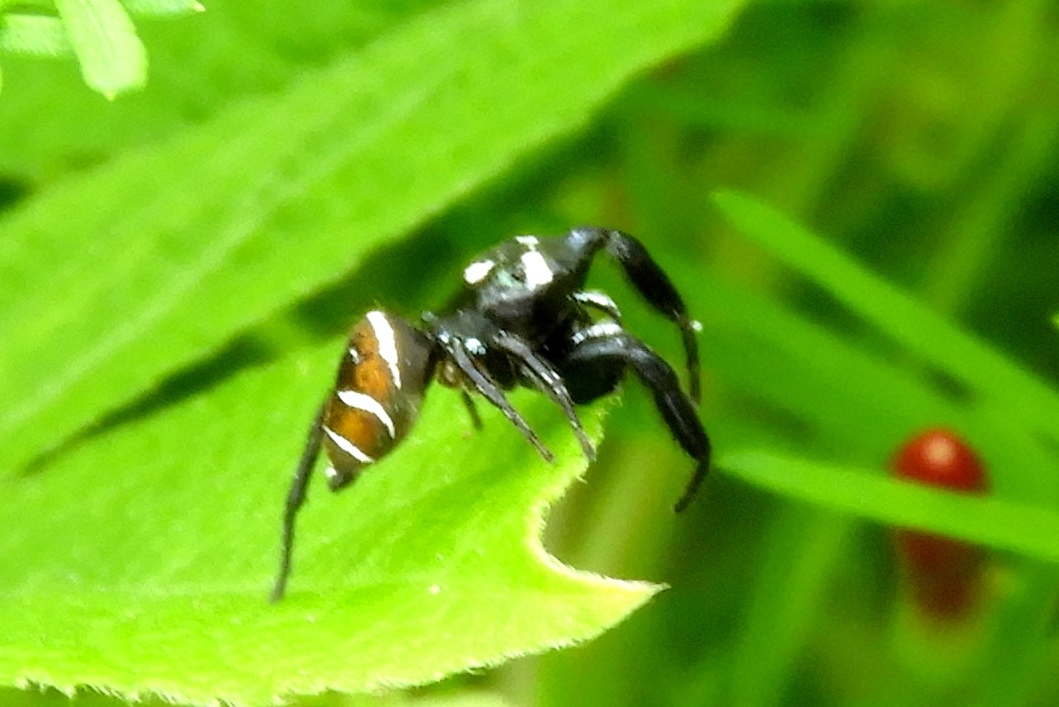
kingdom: Animalia
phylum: Arthropoda
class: Arachnida
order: Araneae
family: Salticidae
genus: Sassacus
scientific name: Sassacus
